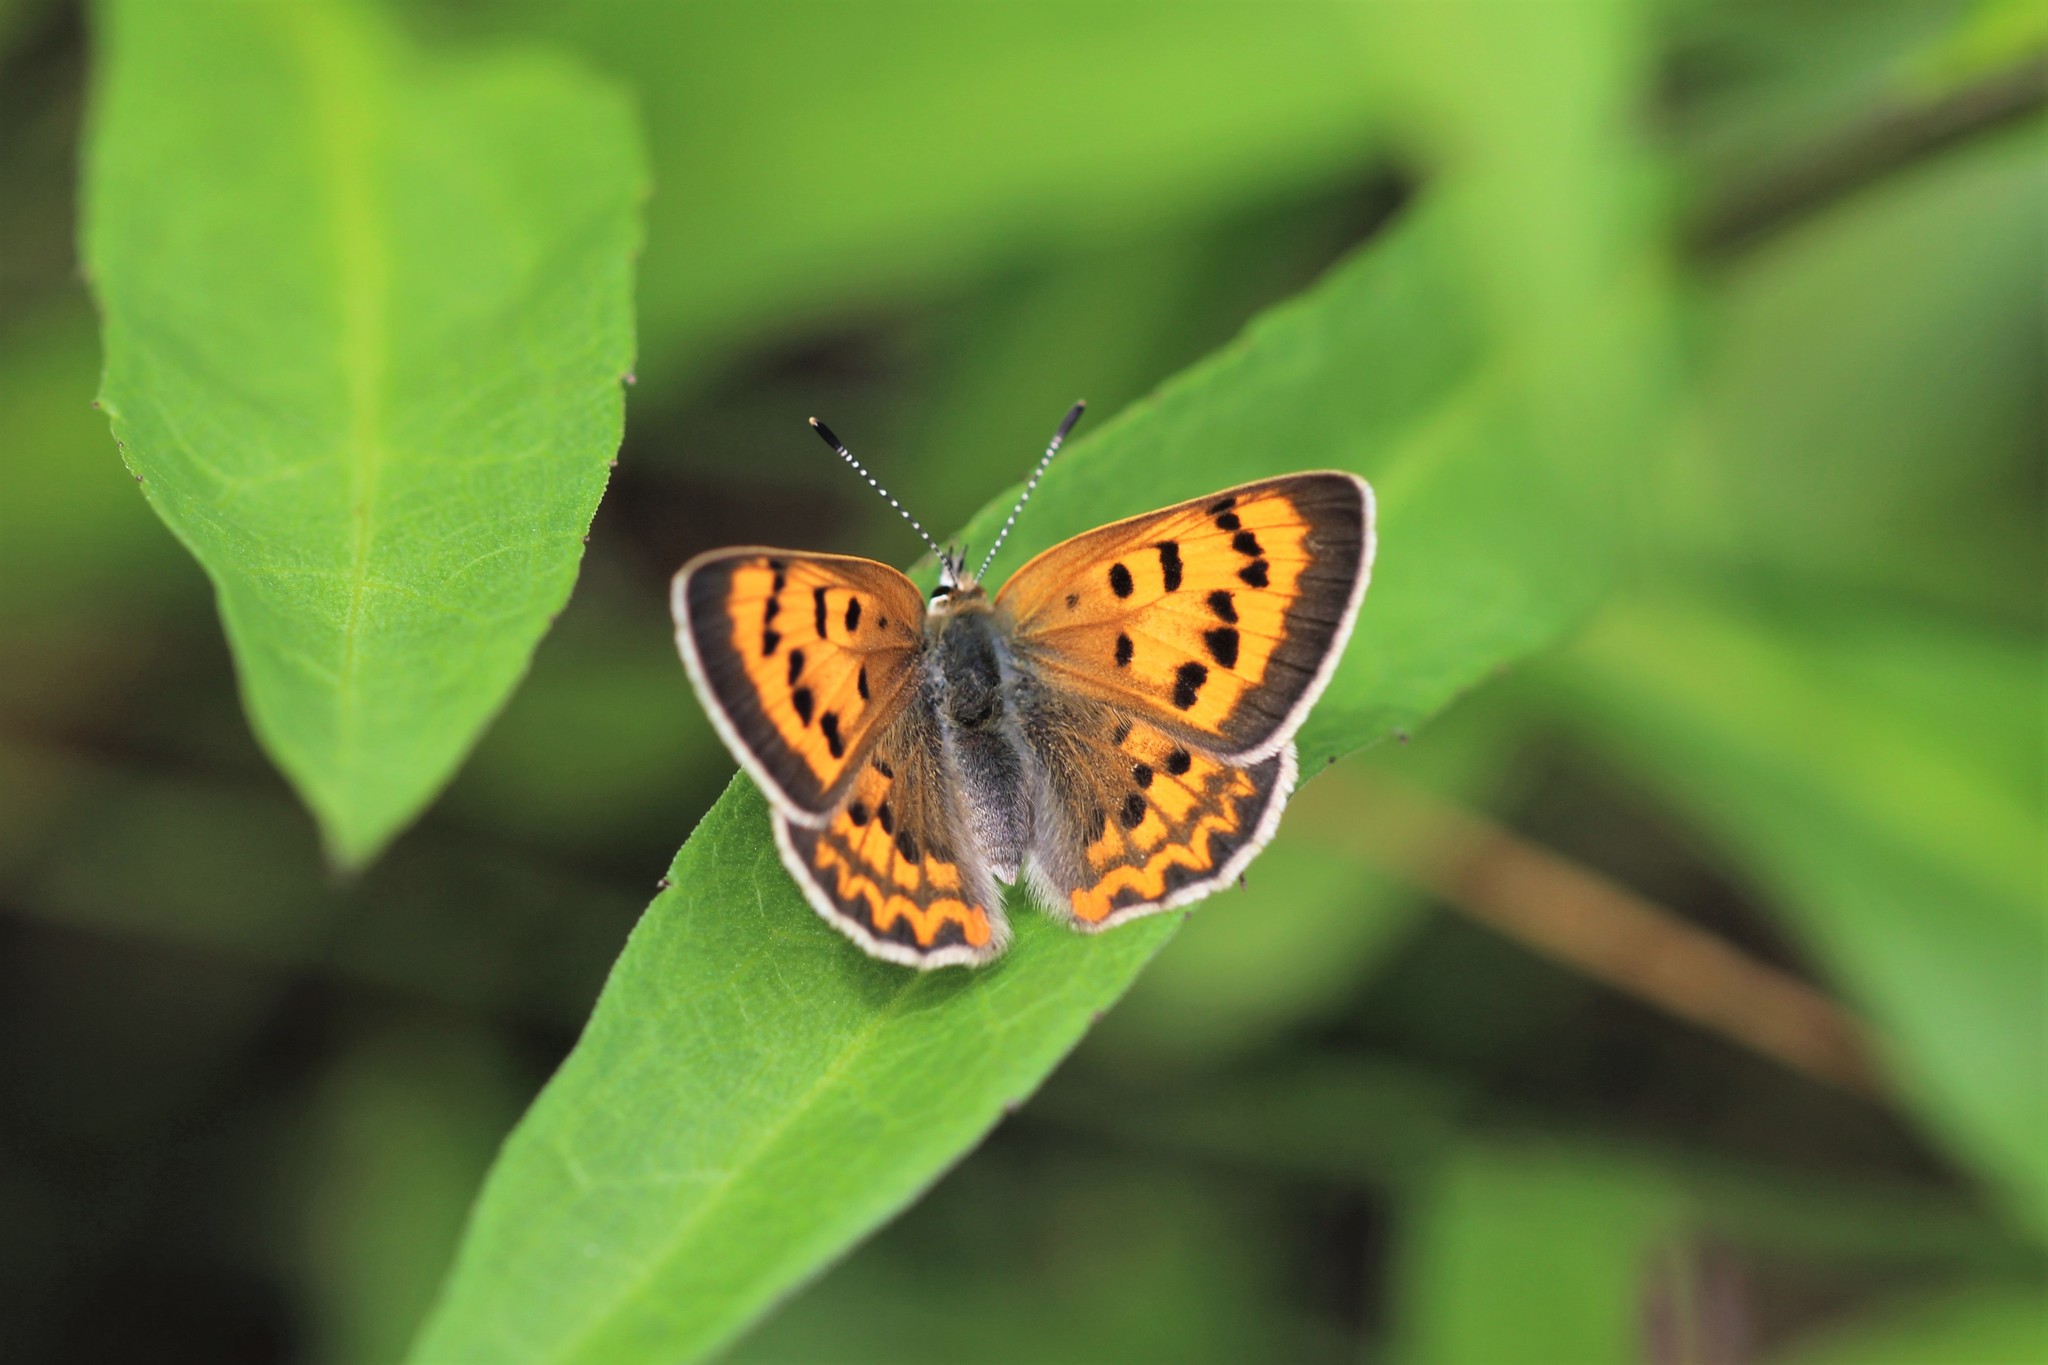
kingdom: Animalia
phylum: Arthropoda
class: Insecta
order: Lepidoptera
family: Lycaenidae
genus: Tharsalea
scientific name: Tharsalea helloides
